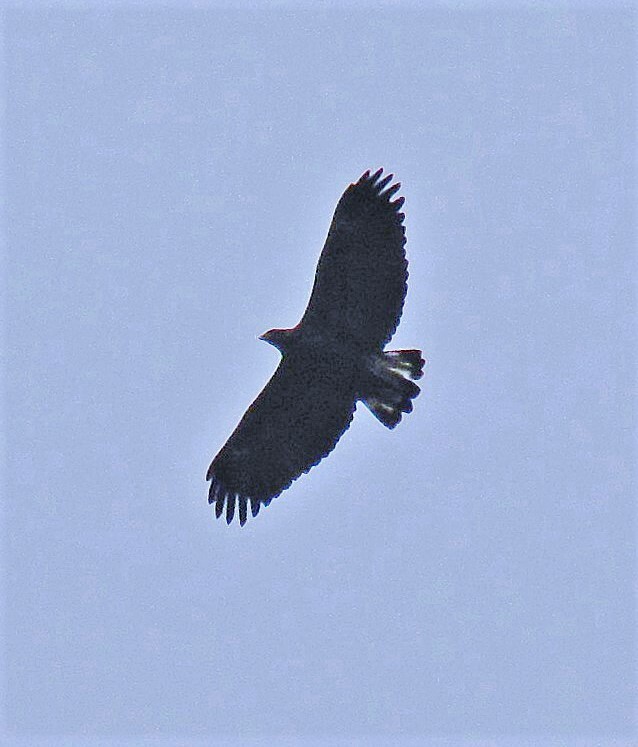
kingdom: Animalia
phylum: Chordata
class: Aves
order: Accipitriformes
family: Accipitridae
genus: Buteogallus
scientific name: Buteogallus urubitinga
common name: Great black hawk
